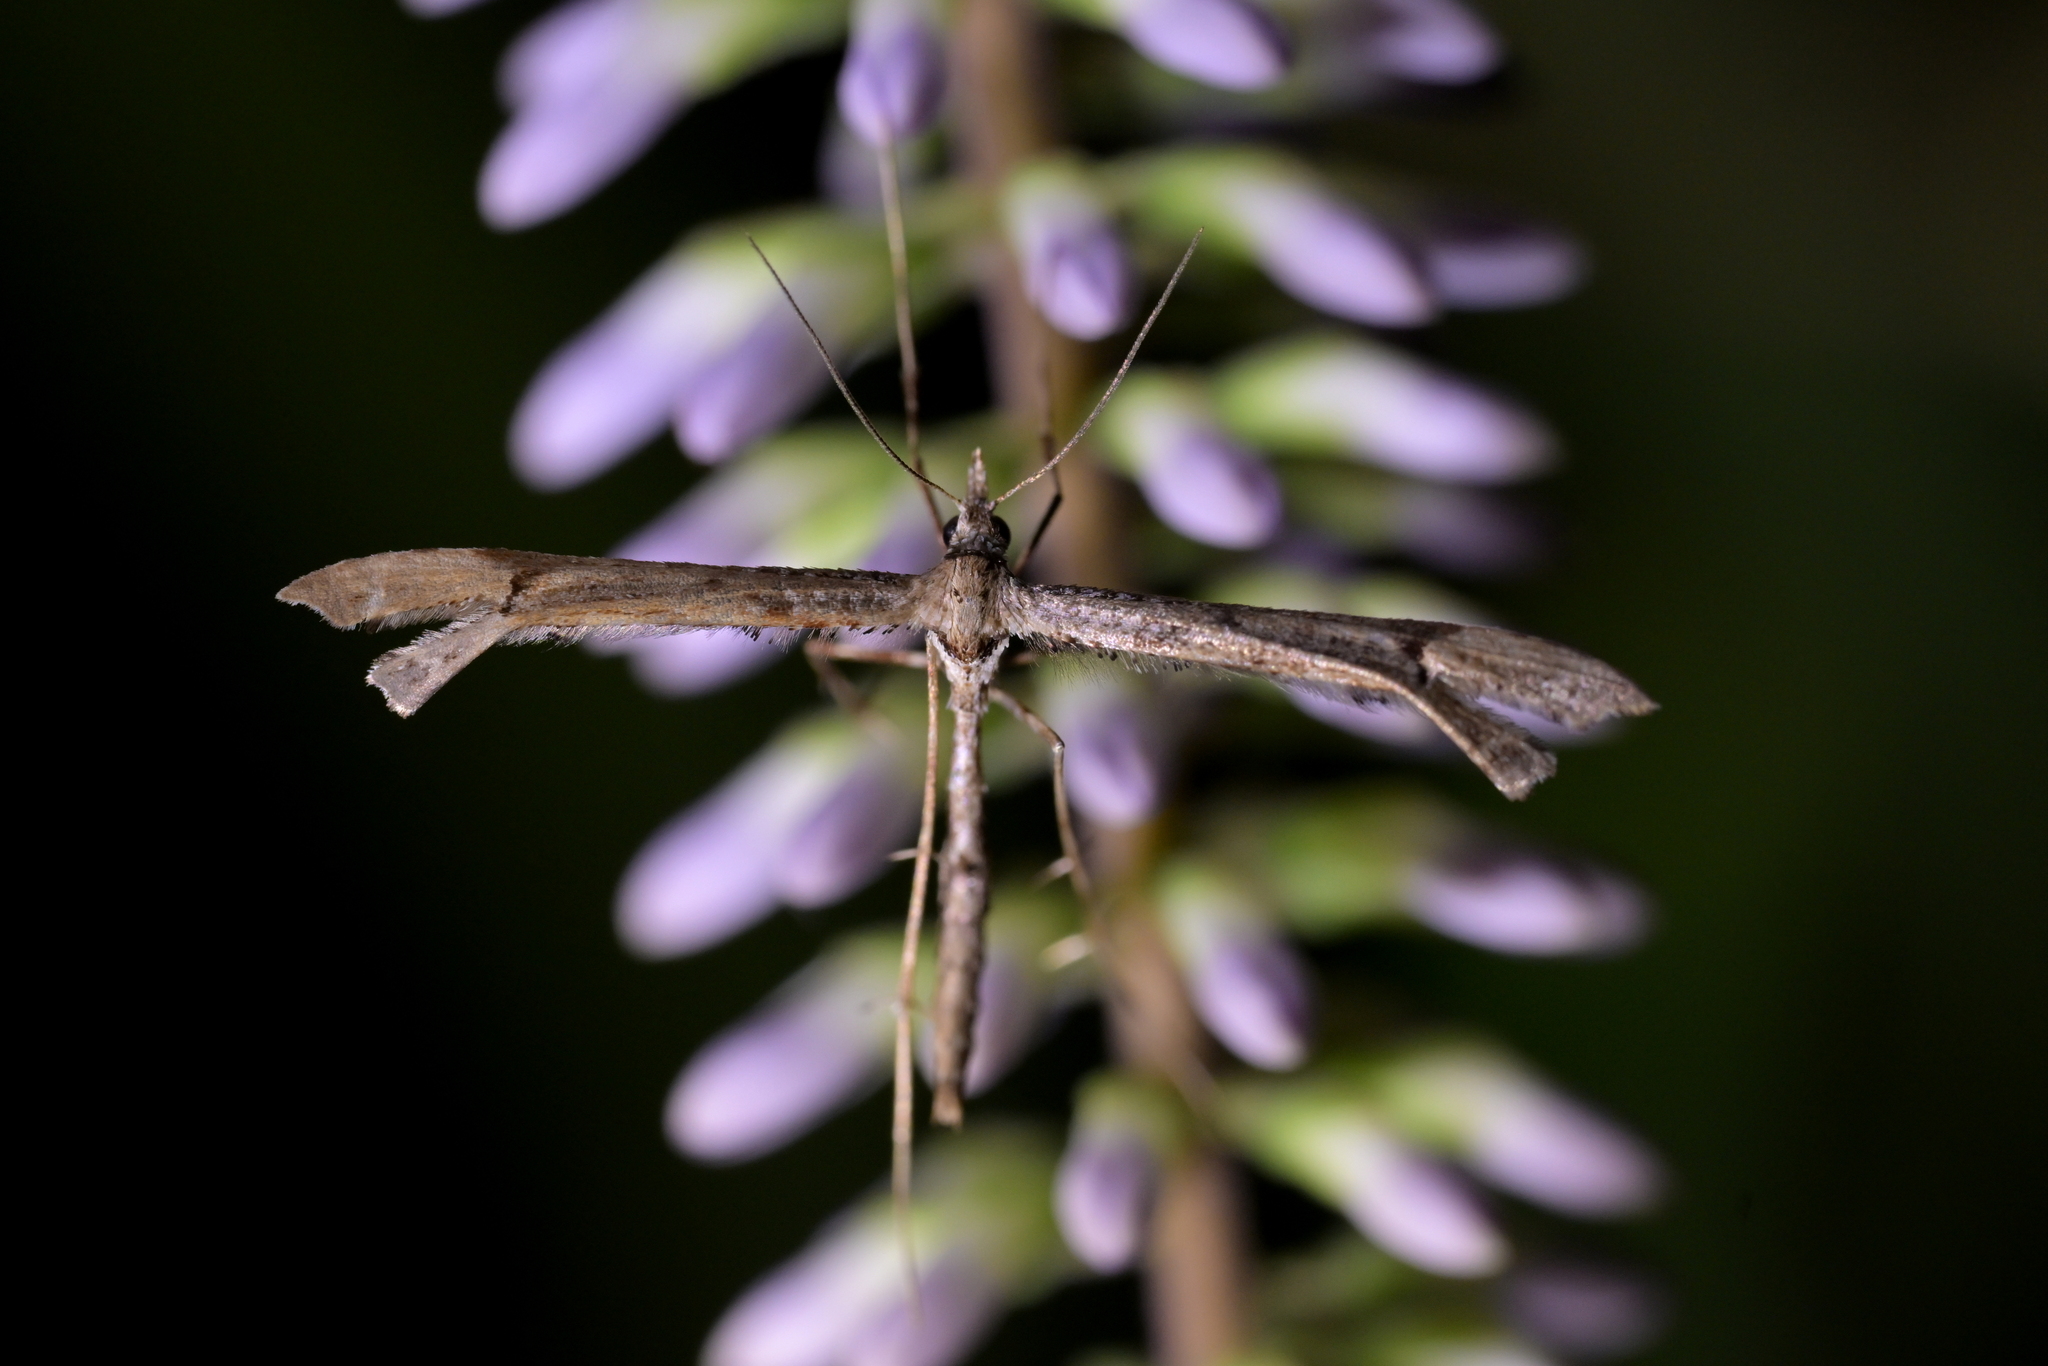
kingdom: Animalia
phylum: Arthropoda
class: Insecta
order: Lepidoptera
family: Pterophoridae
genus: Amblyptilia
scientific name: Amblyptilia repletalis
